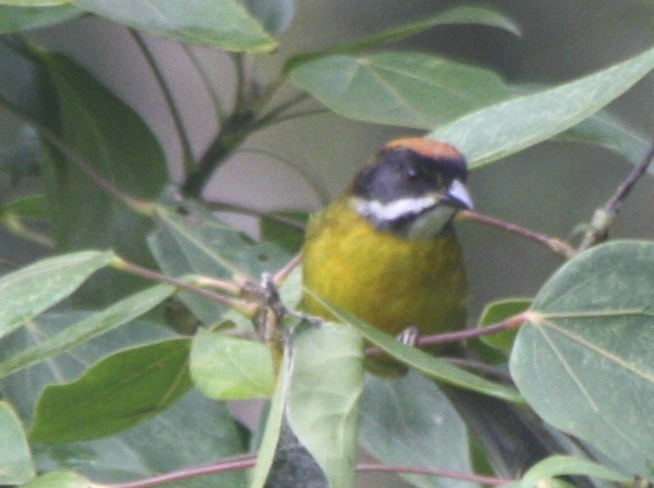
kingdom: Animalia
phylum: Chordata
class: Aves
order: Passeriformes
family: Passerellidae
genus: Atlapetes
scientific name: Atlapetes albofrenatus
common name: Moustached brushfinch
